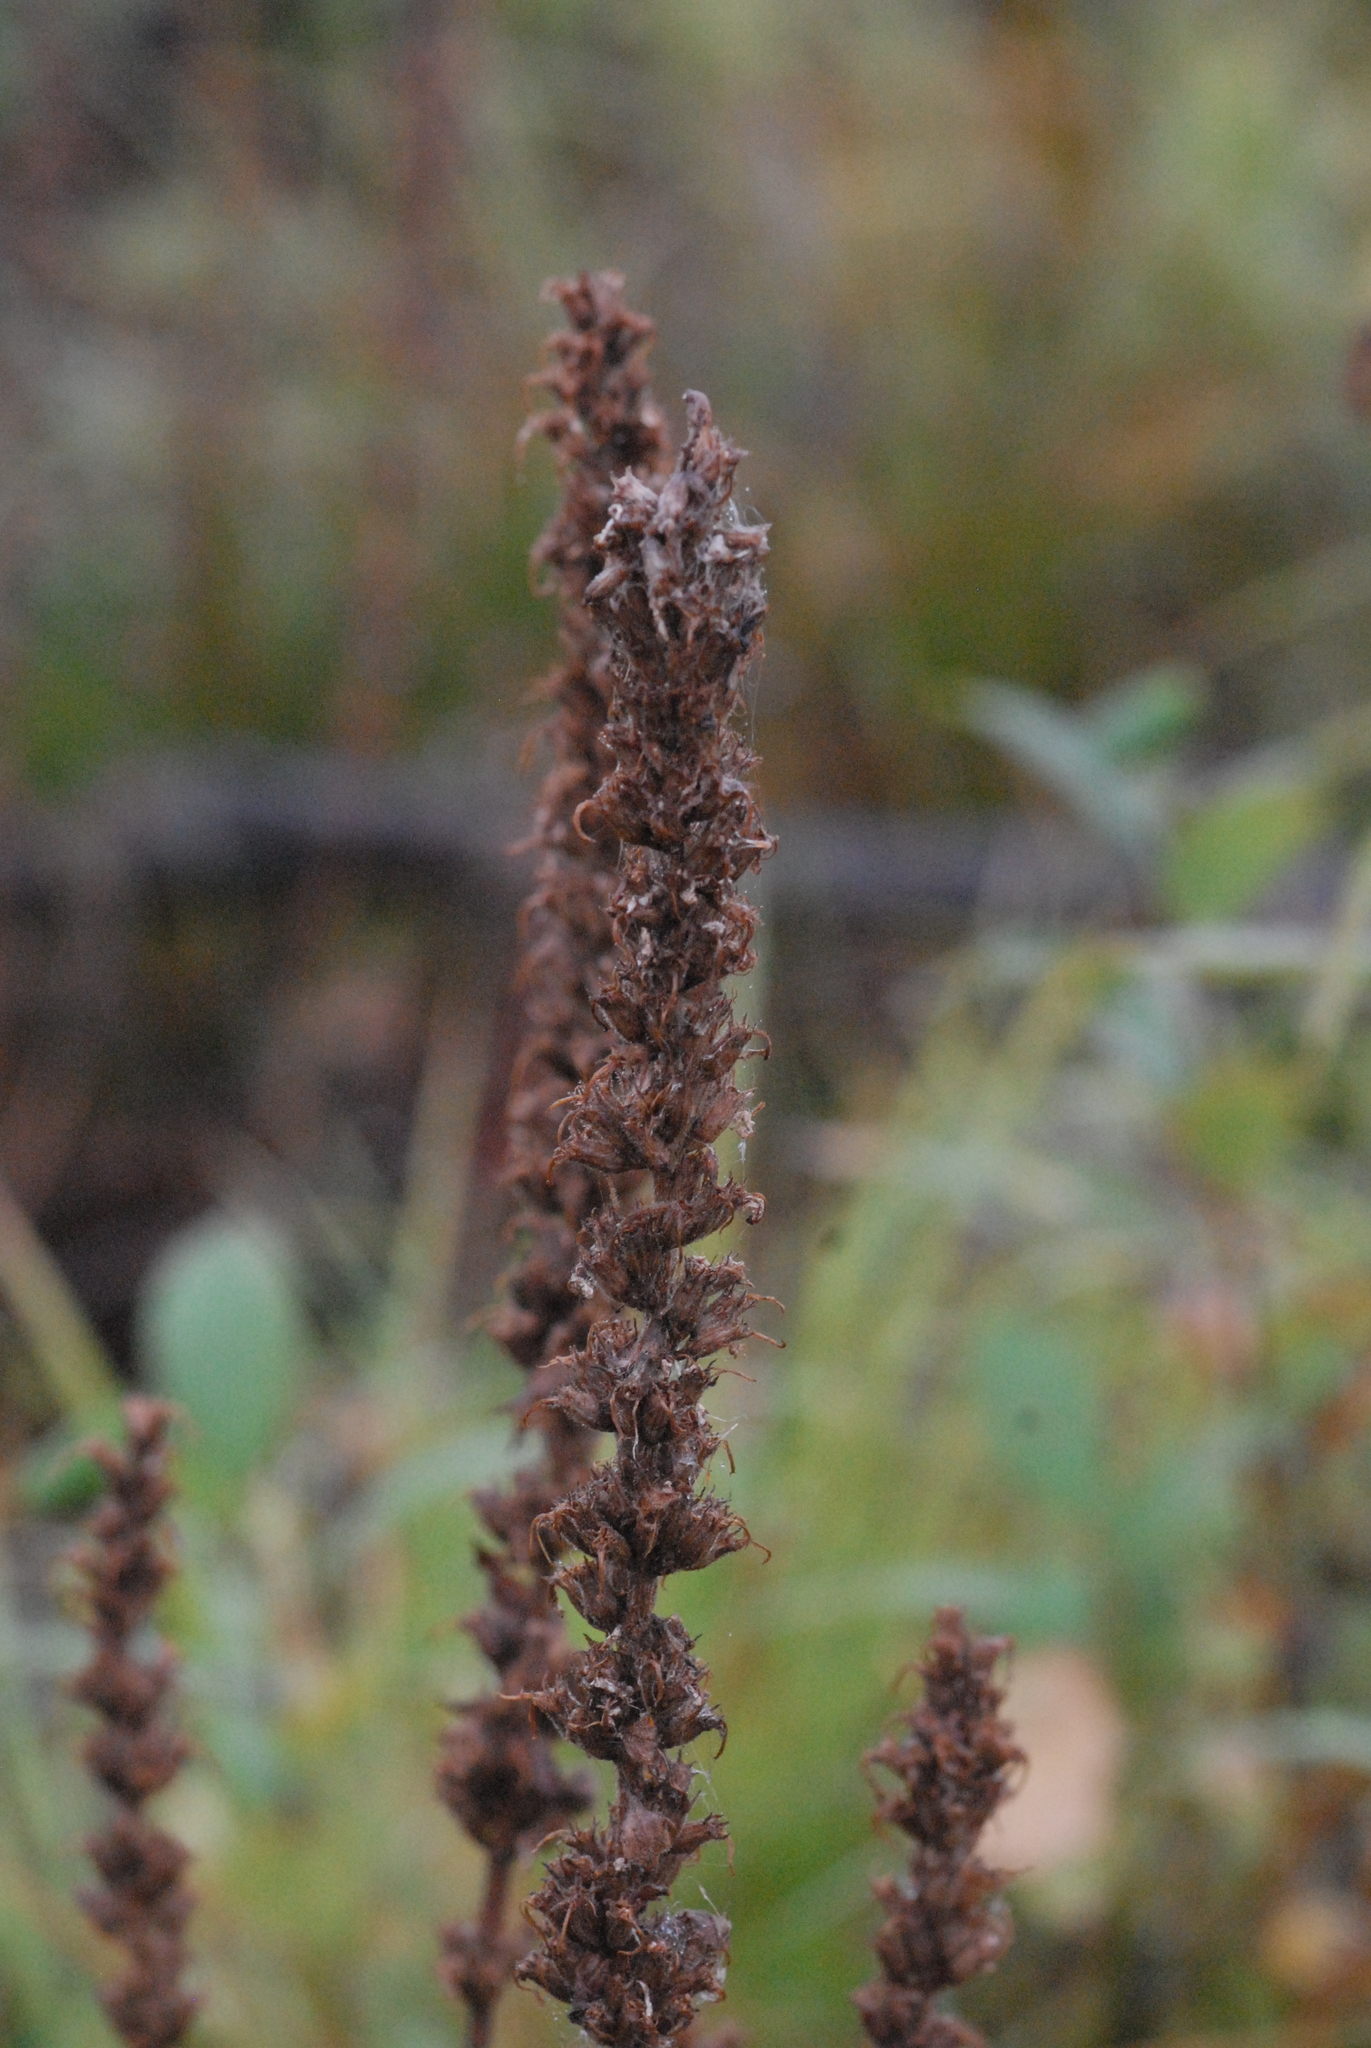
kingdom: Plantae
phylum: Tracheophyta
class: Magnoliopsida
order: Myrtales
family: Lythraceae
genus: Lythrum
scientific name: Lythrum salicaria
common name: Purple loosestrife
